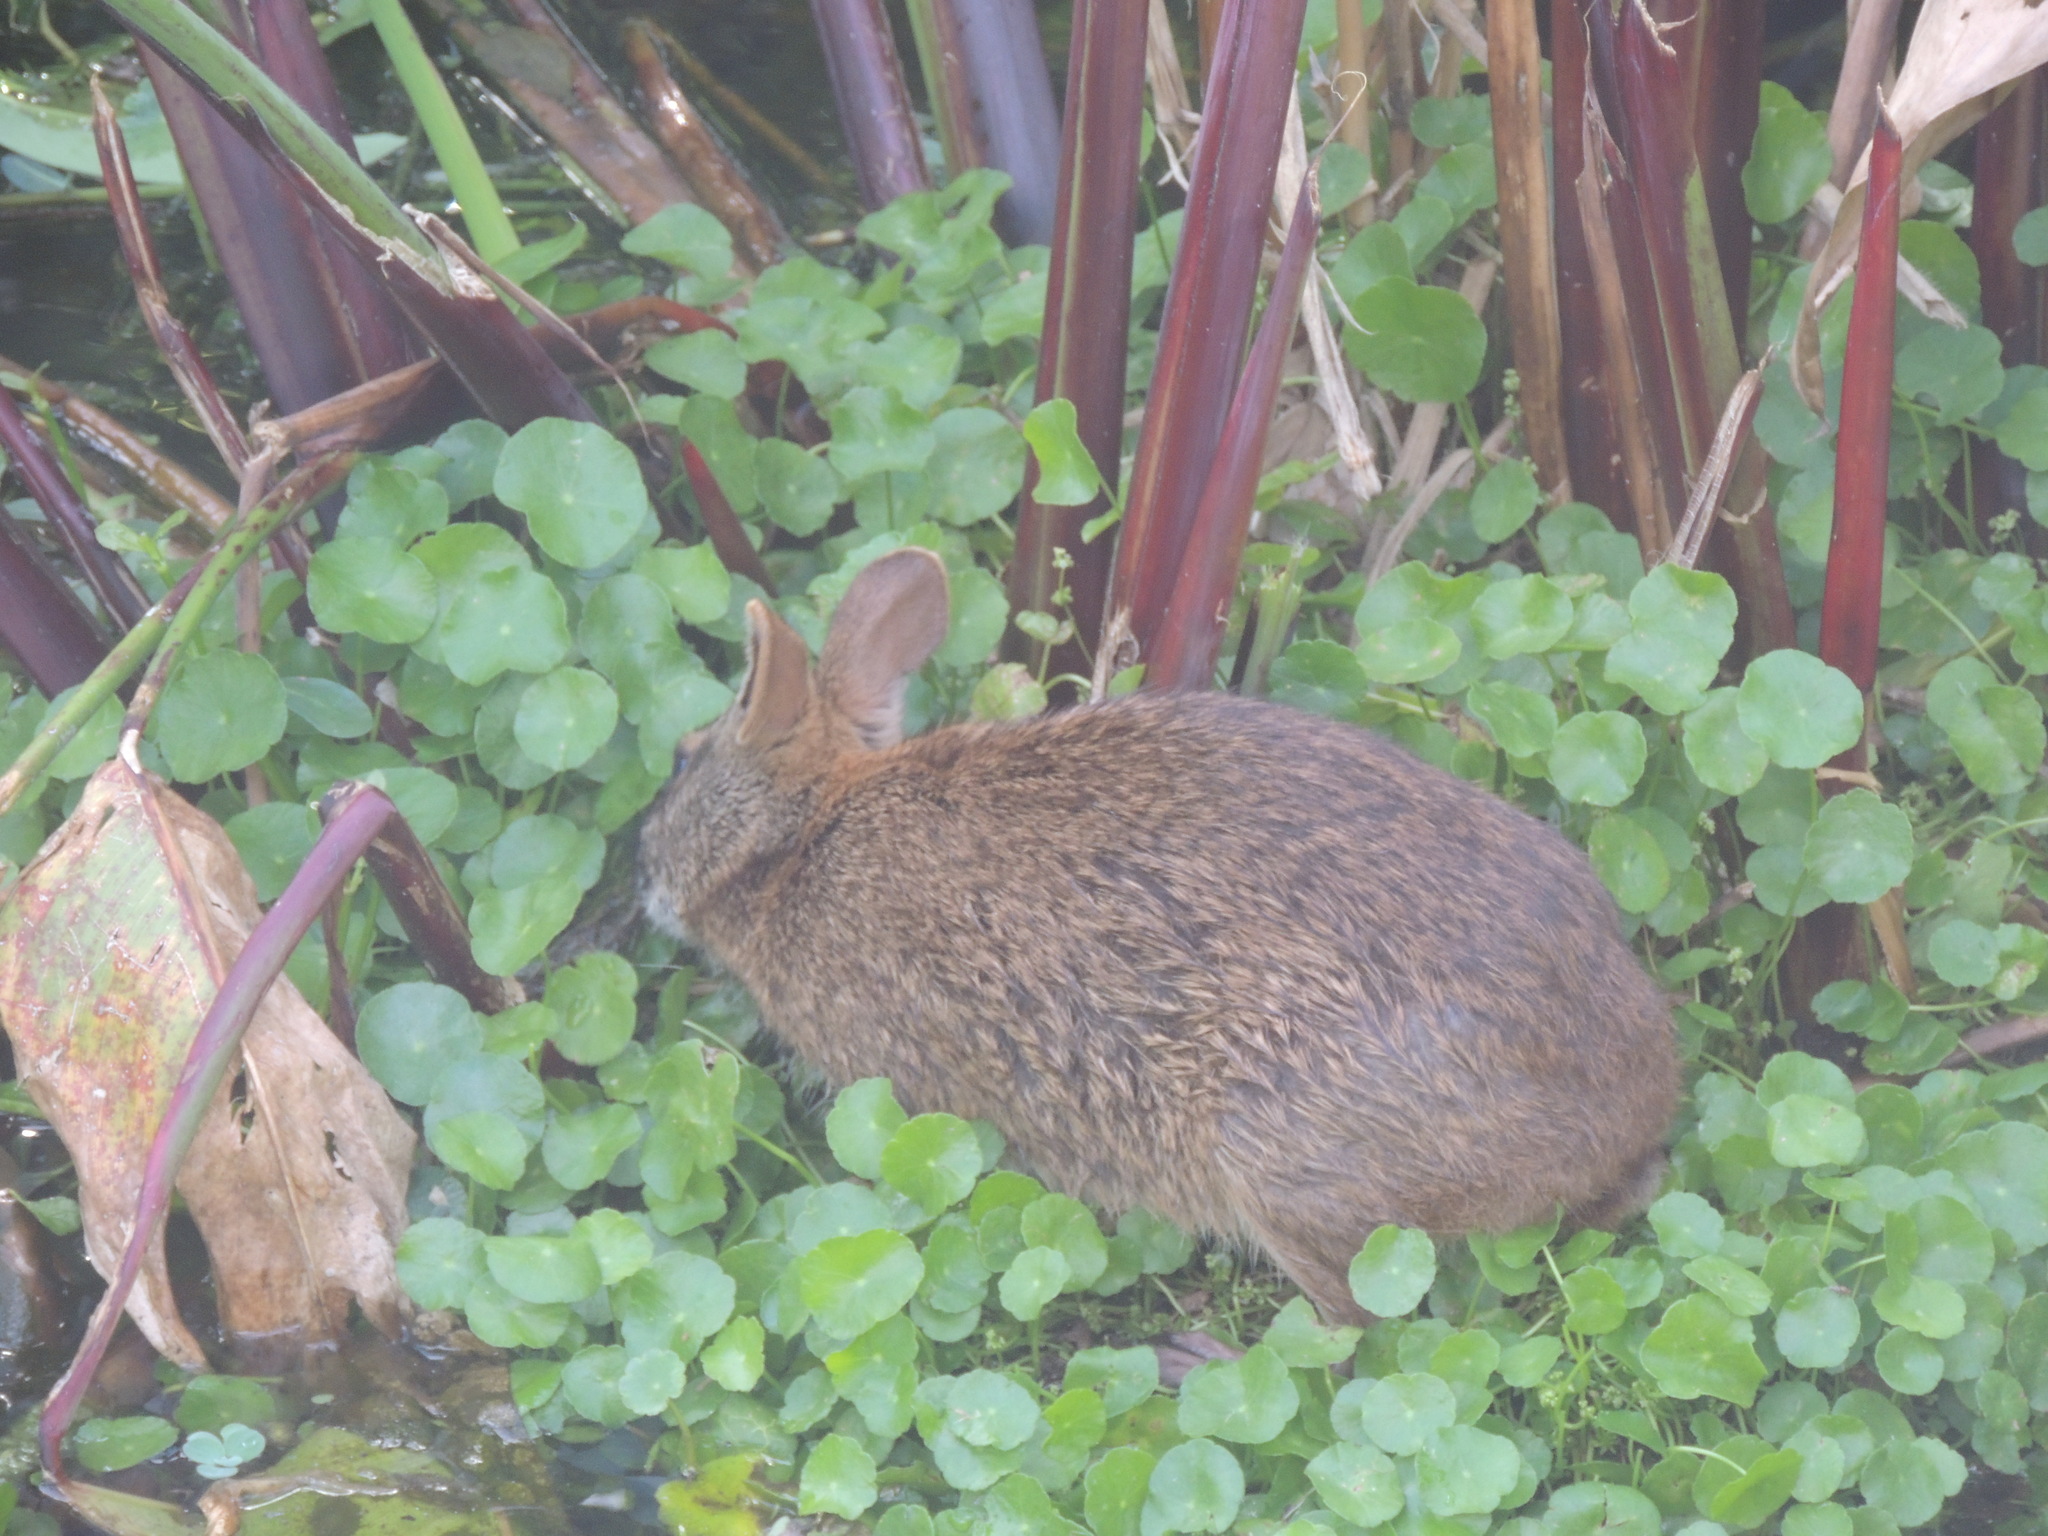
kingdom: Animalia
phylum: Chordata
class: Mammalia
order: Lagomorpha
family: Leporidae
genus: Sylvilagus
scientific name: Sylvilagus palustris
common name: Marsh rabbit
